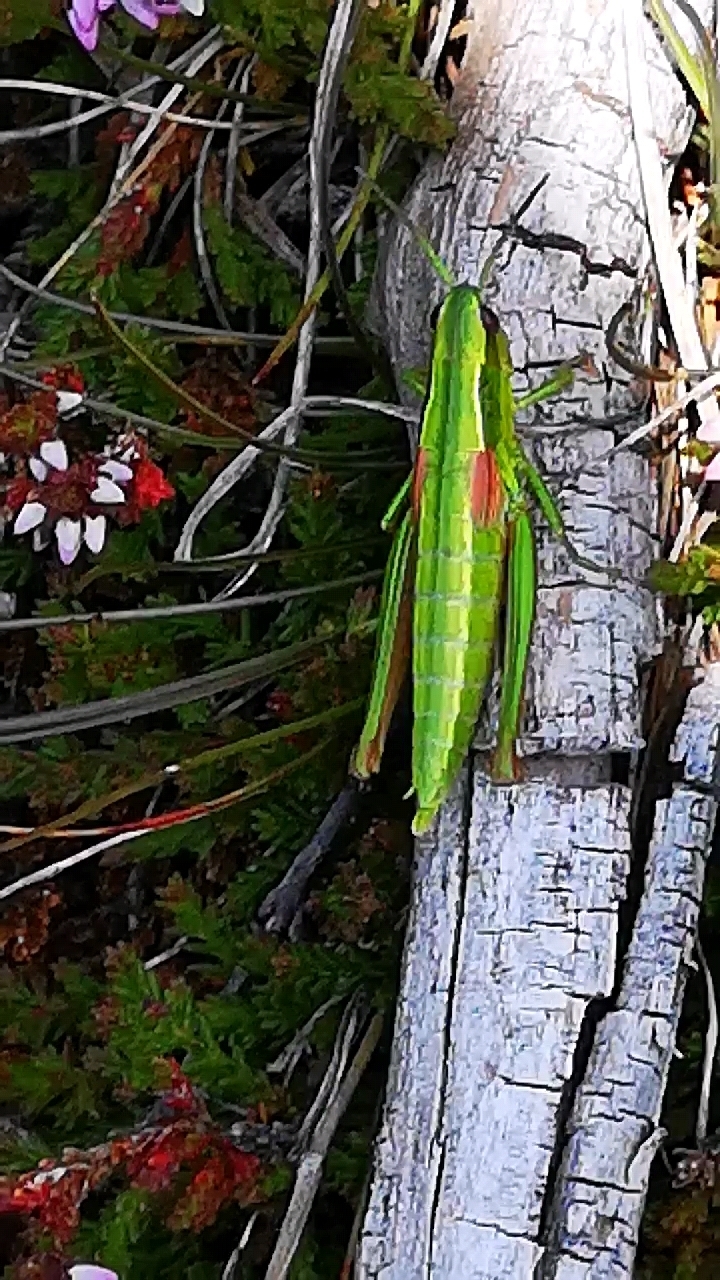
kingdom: Animalia
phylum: Arthropoda
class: Insecta
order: Orthoptera
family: Acrididae
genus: Euthystira
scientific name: Euthystira brachyptera
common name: Small gold grasshopper
